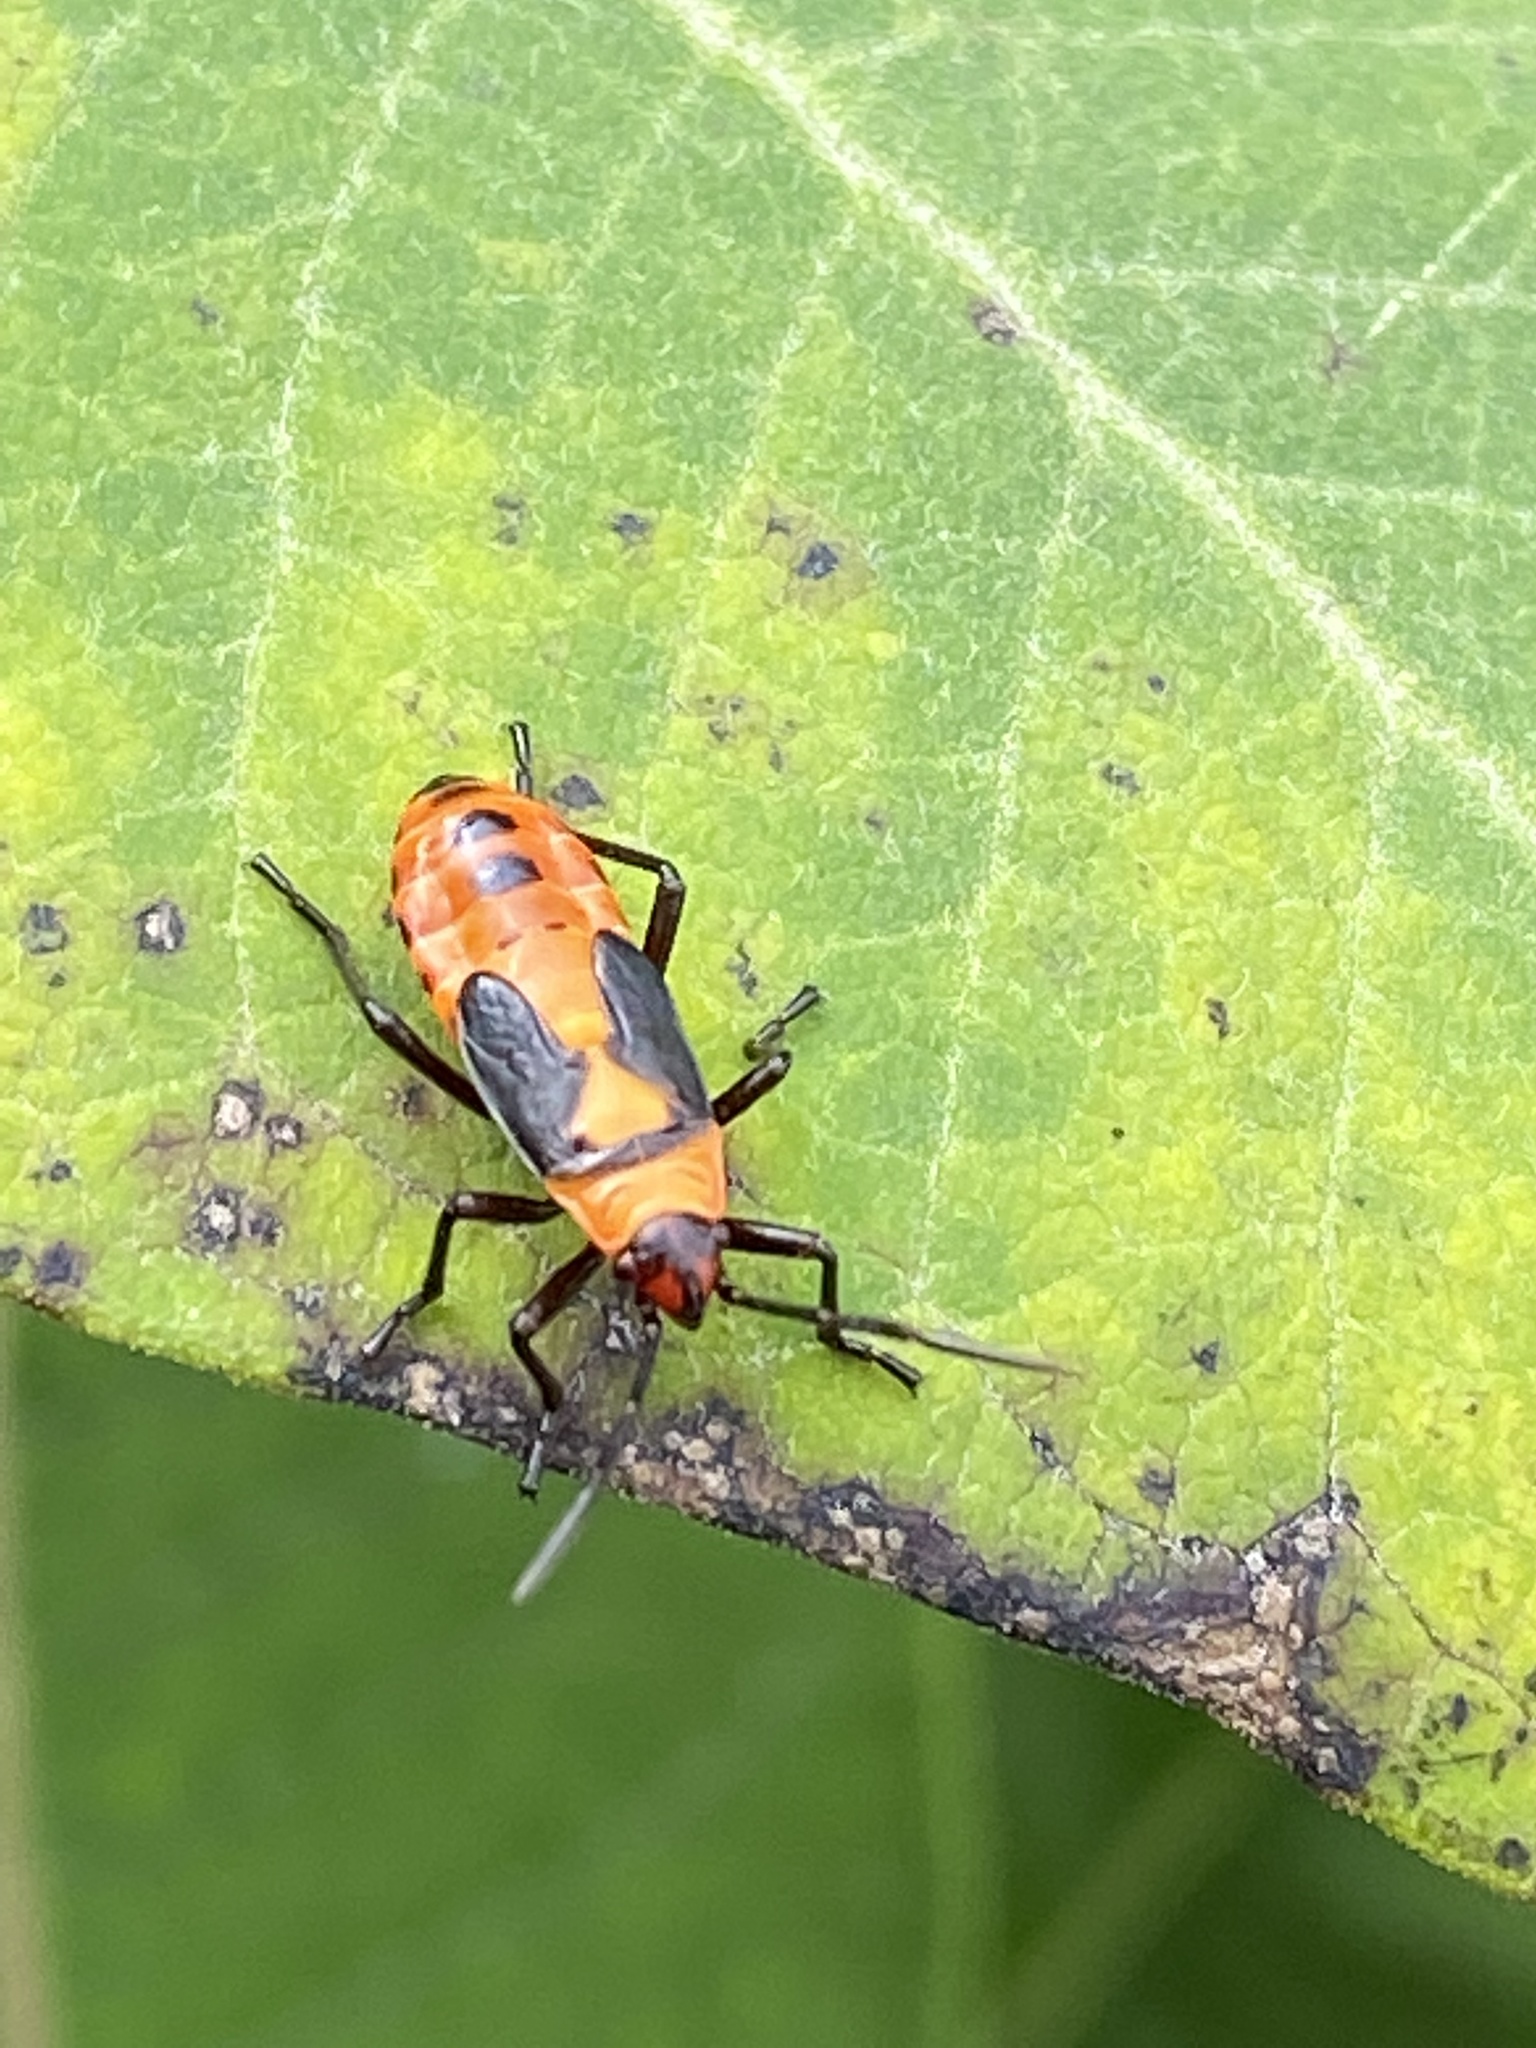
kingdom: Animalia
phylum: Arthropoda
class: Insecta
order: Hemiptera
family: Lygaeidae
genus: Oncopeltus
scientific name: Oncopeltus fasciatus
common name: Large milkweed bug
